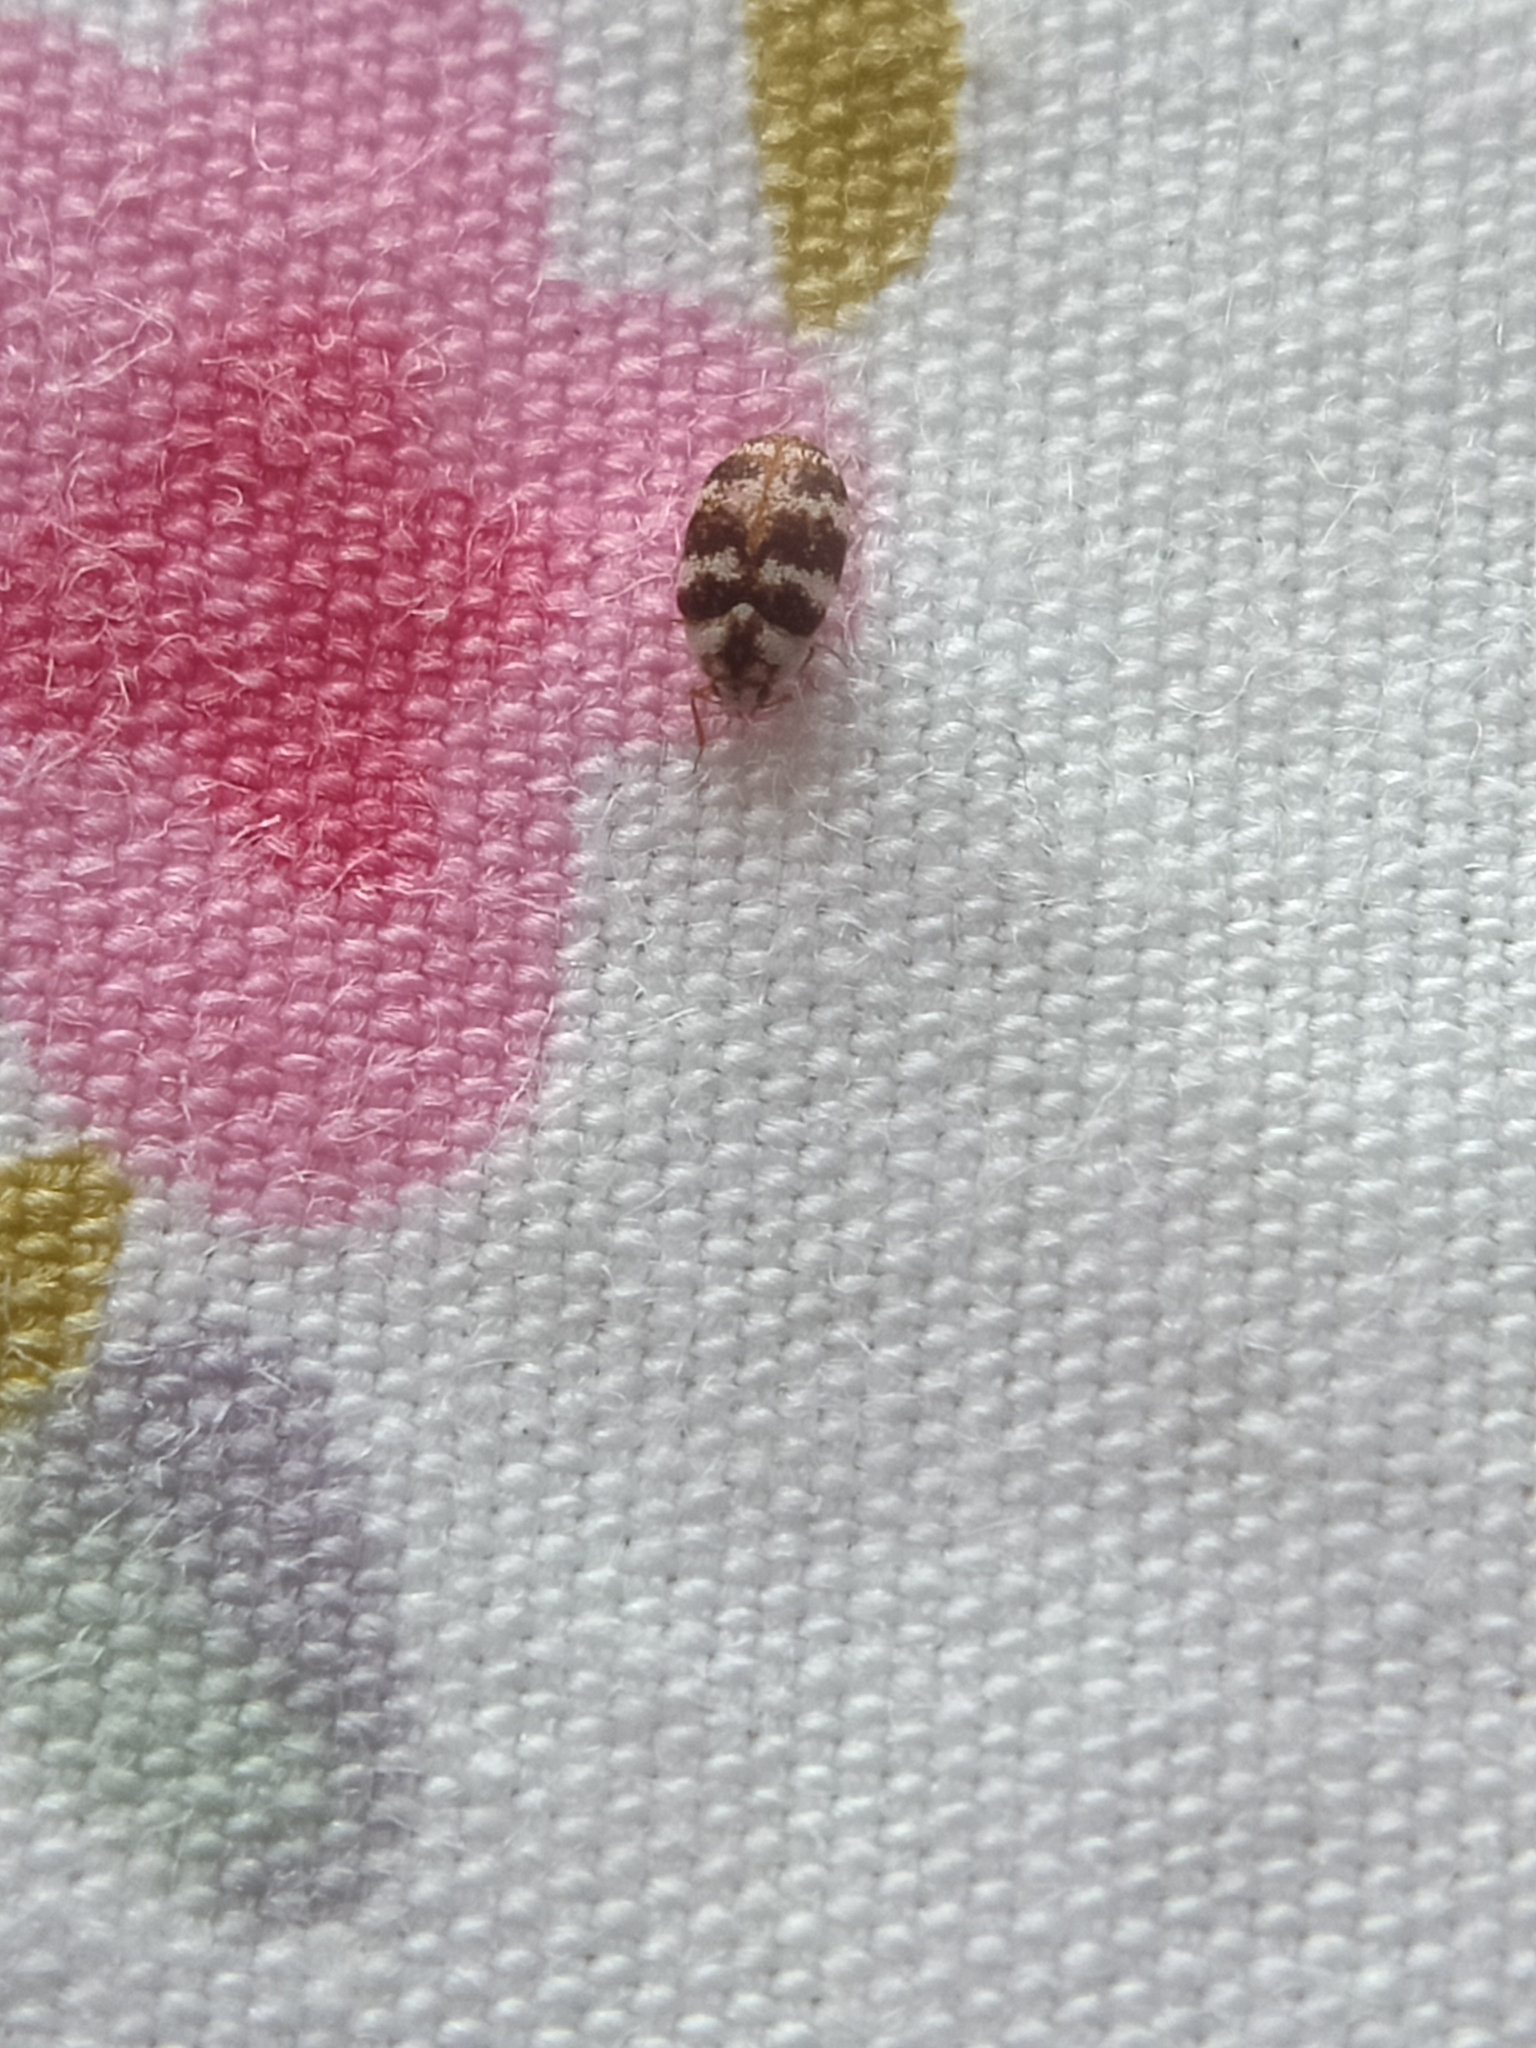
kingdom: Animalia
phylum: Arthropoda
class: Insecta
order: Coleoptera
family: Dermestidae
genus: Anthrenus
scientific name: Anthrenus coloratus
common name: Auger beetle
